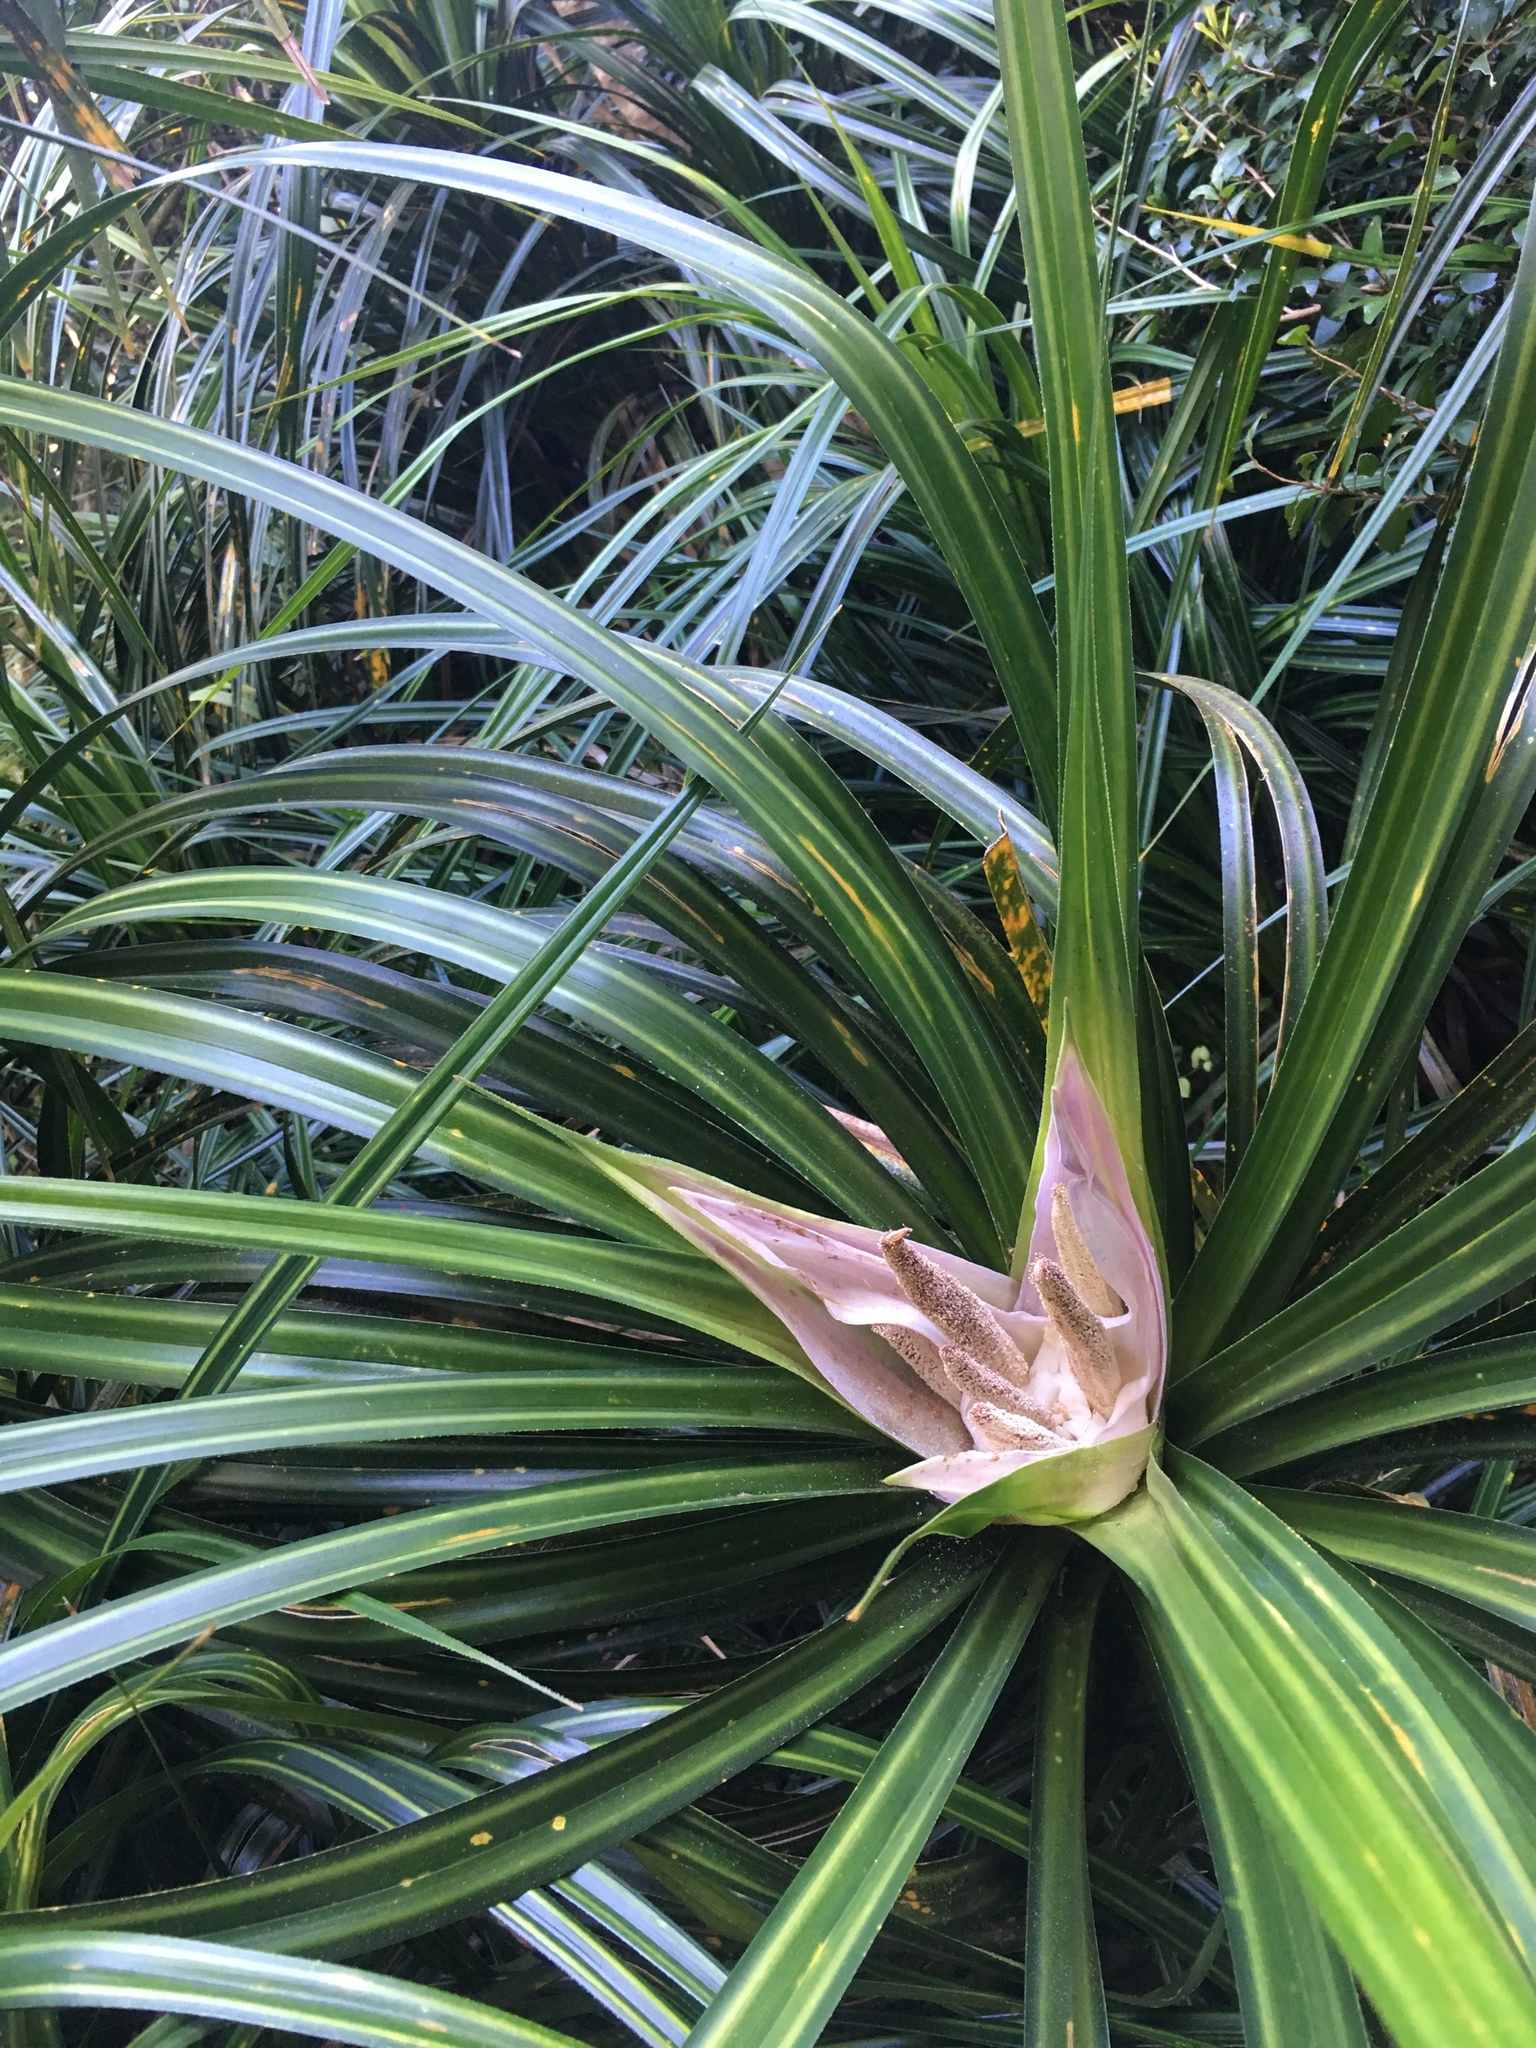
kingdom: Plantae
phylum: Tracheophyta
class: Liliopsida
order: Pandanales
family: Pandanaceae
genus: Freycinetia
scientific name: Freycinetia banksii
